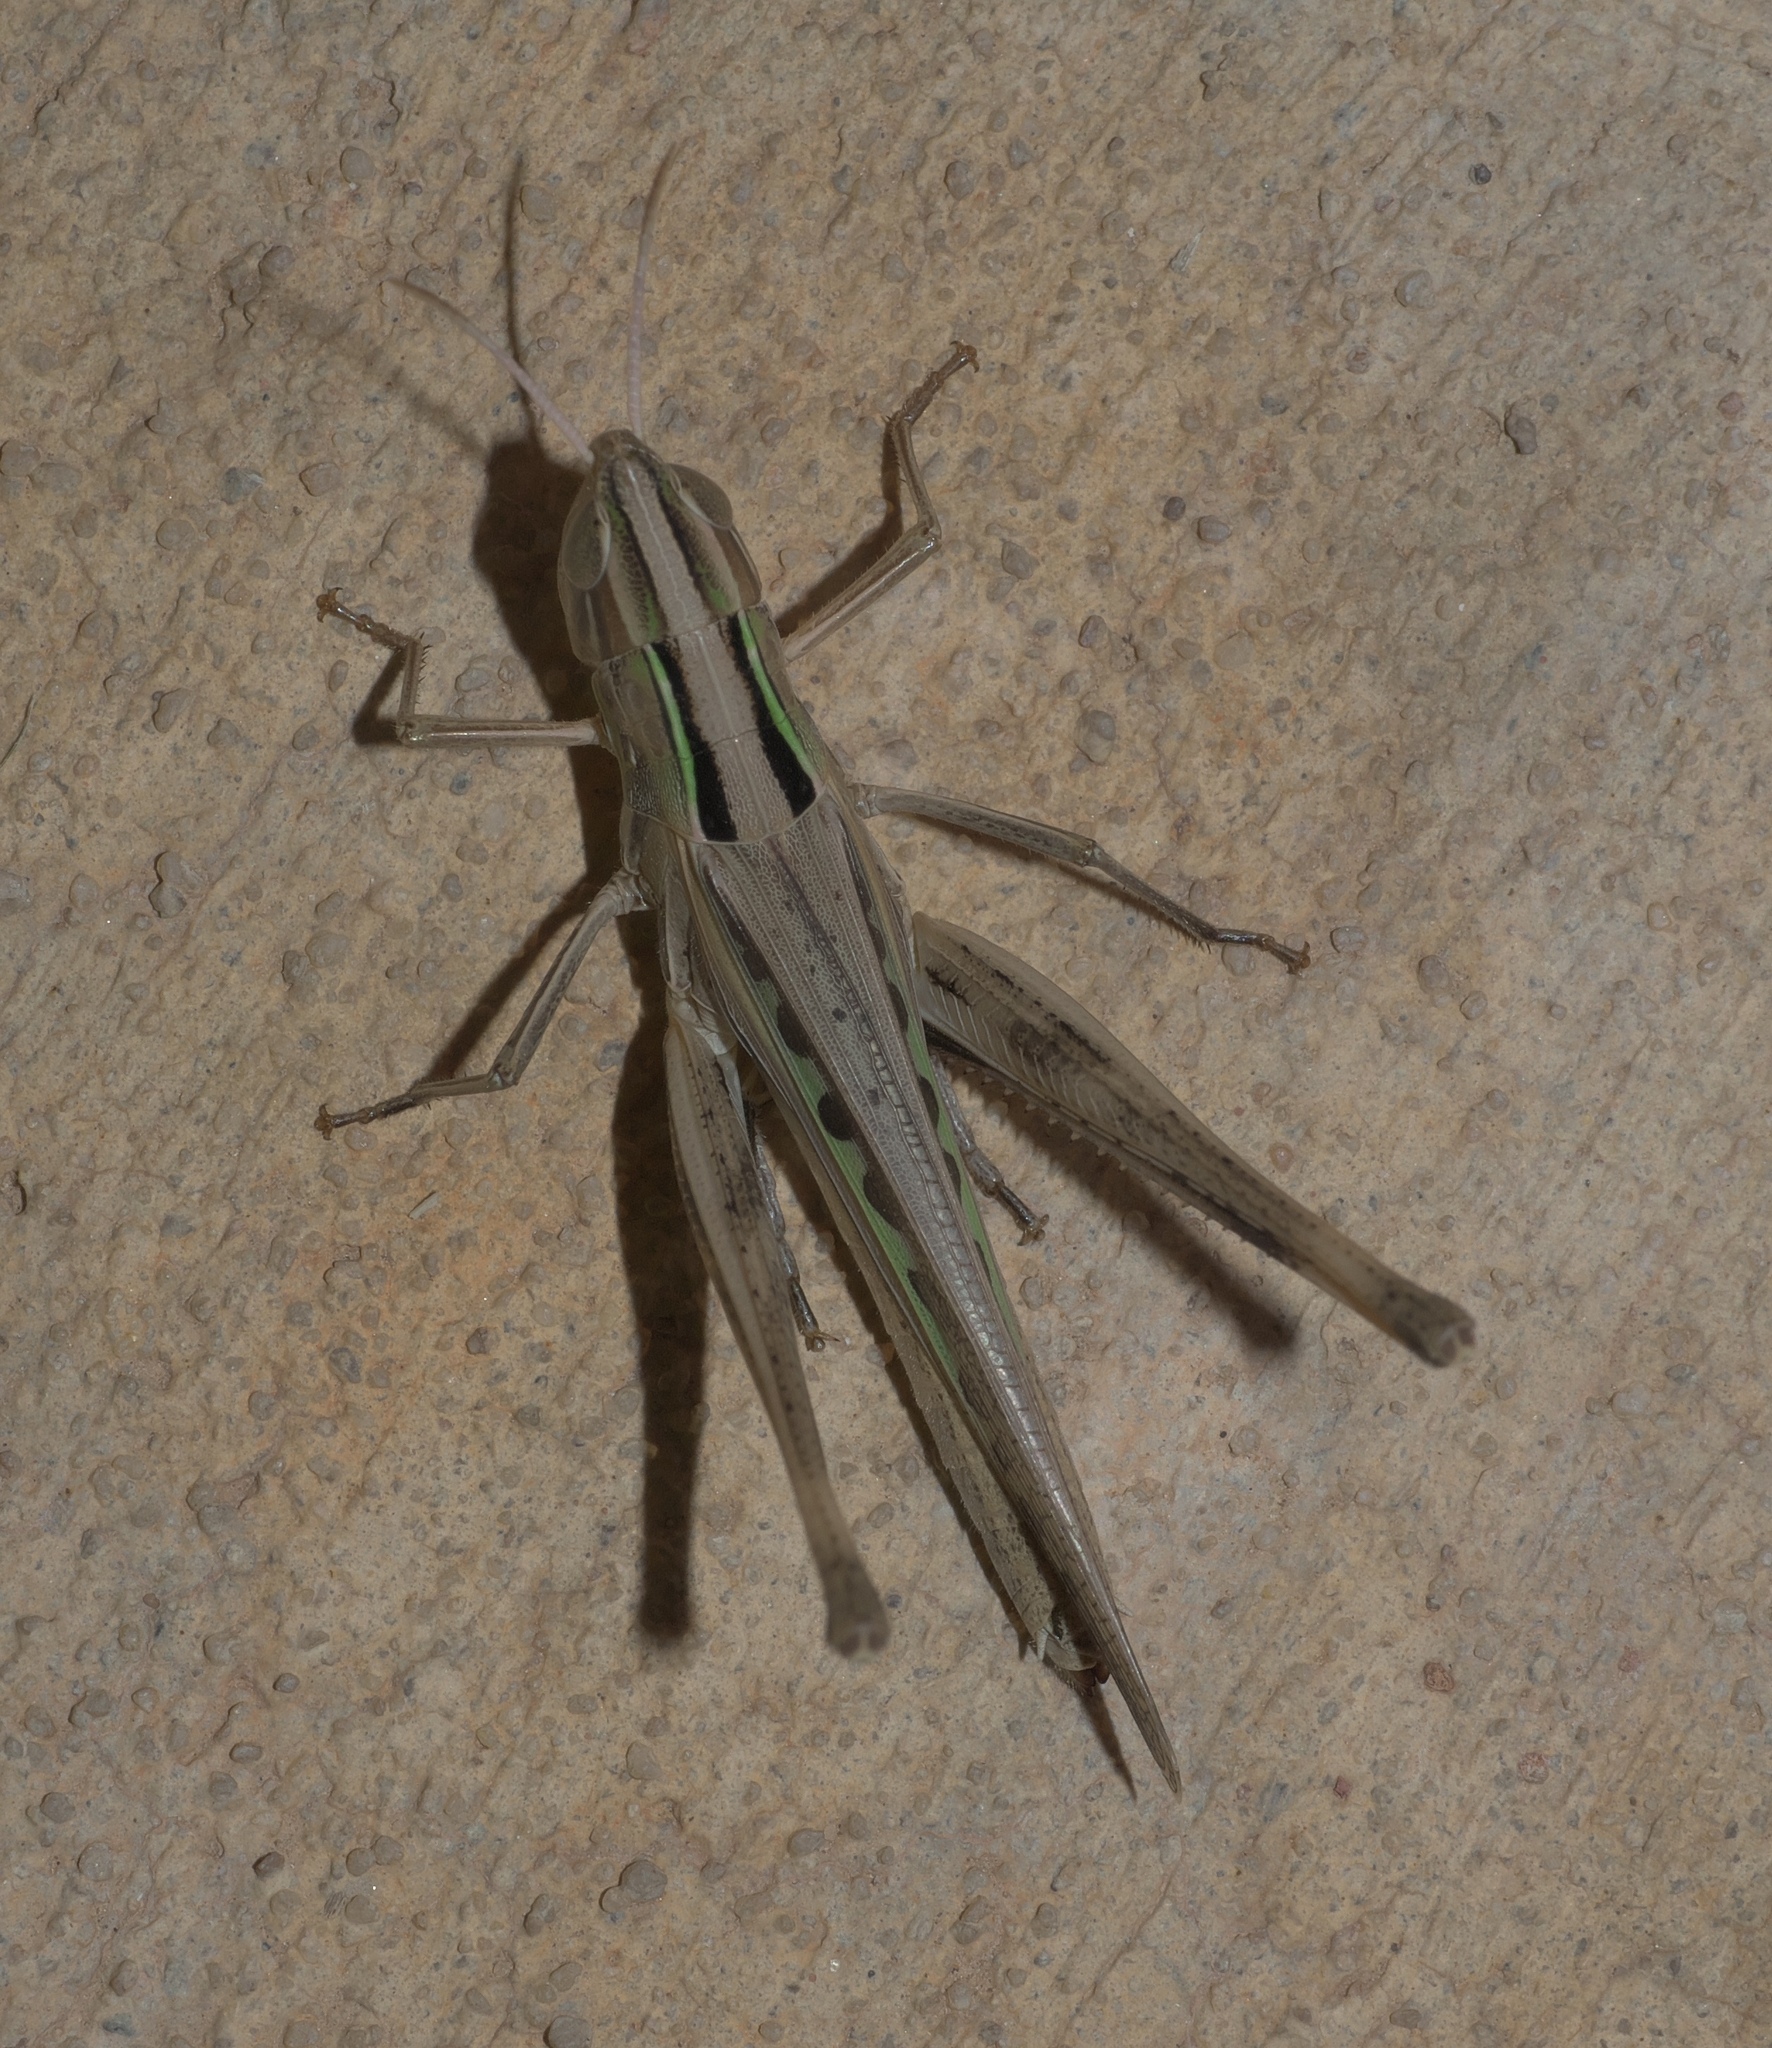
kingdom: Animalia
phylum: Arthropoda
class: Insecta
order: Orthoptera
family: Acrididae
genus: Syrbula
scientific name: Syrbula admirabilis
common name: Handsome grasshopper
